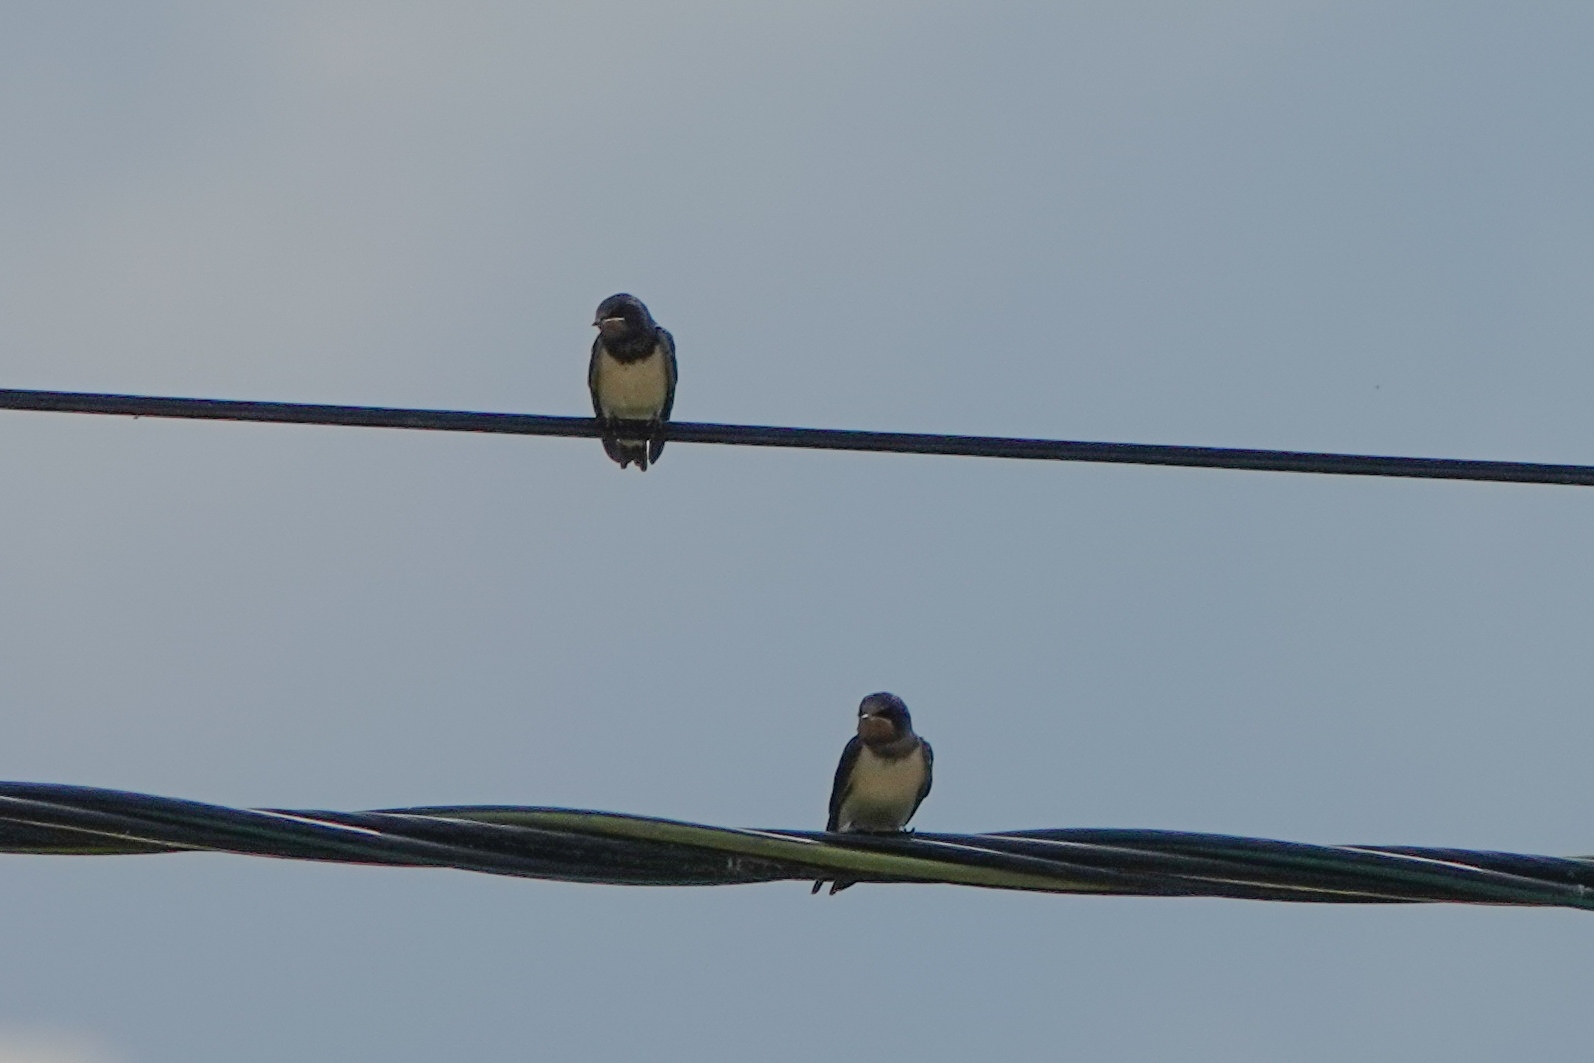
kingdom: Animalia
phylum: Chordata
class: Aves
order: Passeriformes
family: Hirundinidae
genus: Hirundo
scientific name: Hirundo rustica
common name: Barn swallow
